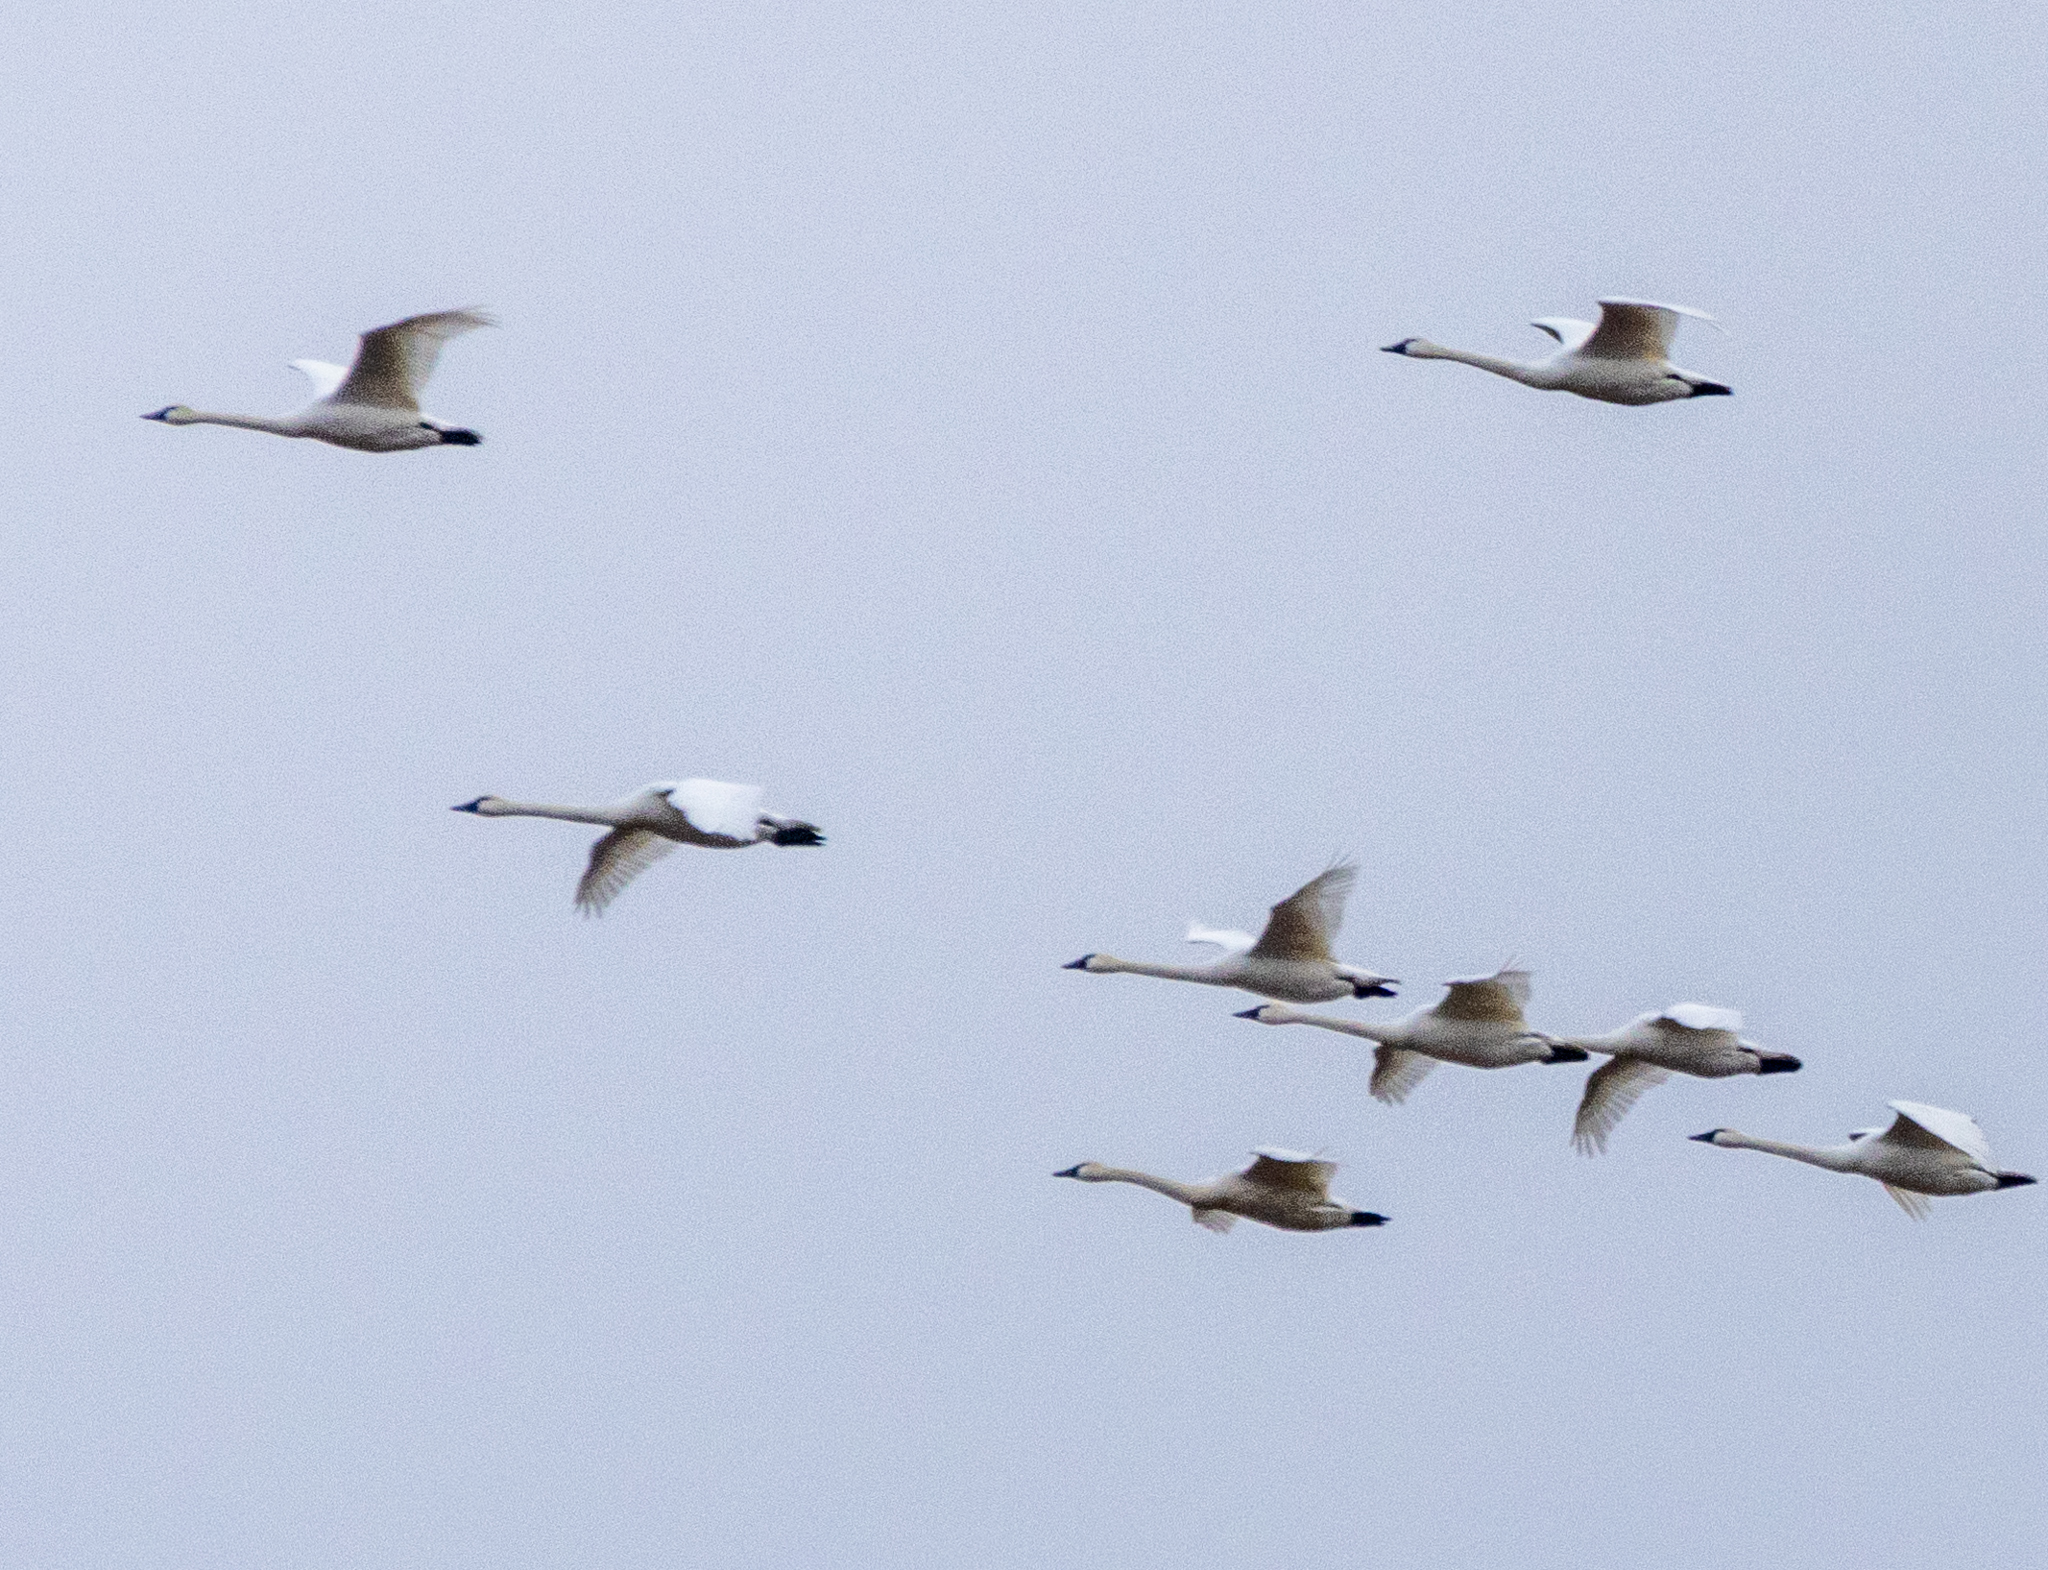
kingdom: Animalia
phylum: Chordata
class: Aves
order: Anseriformes
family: Anatidae
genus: Cygnus
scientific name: Cygnus columbianus
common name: Tundra swan
